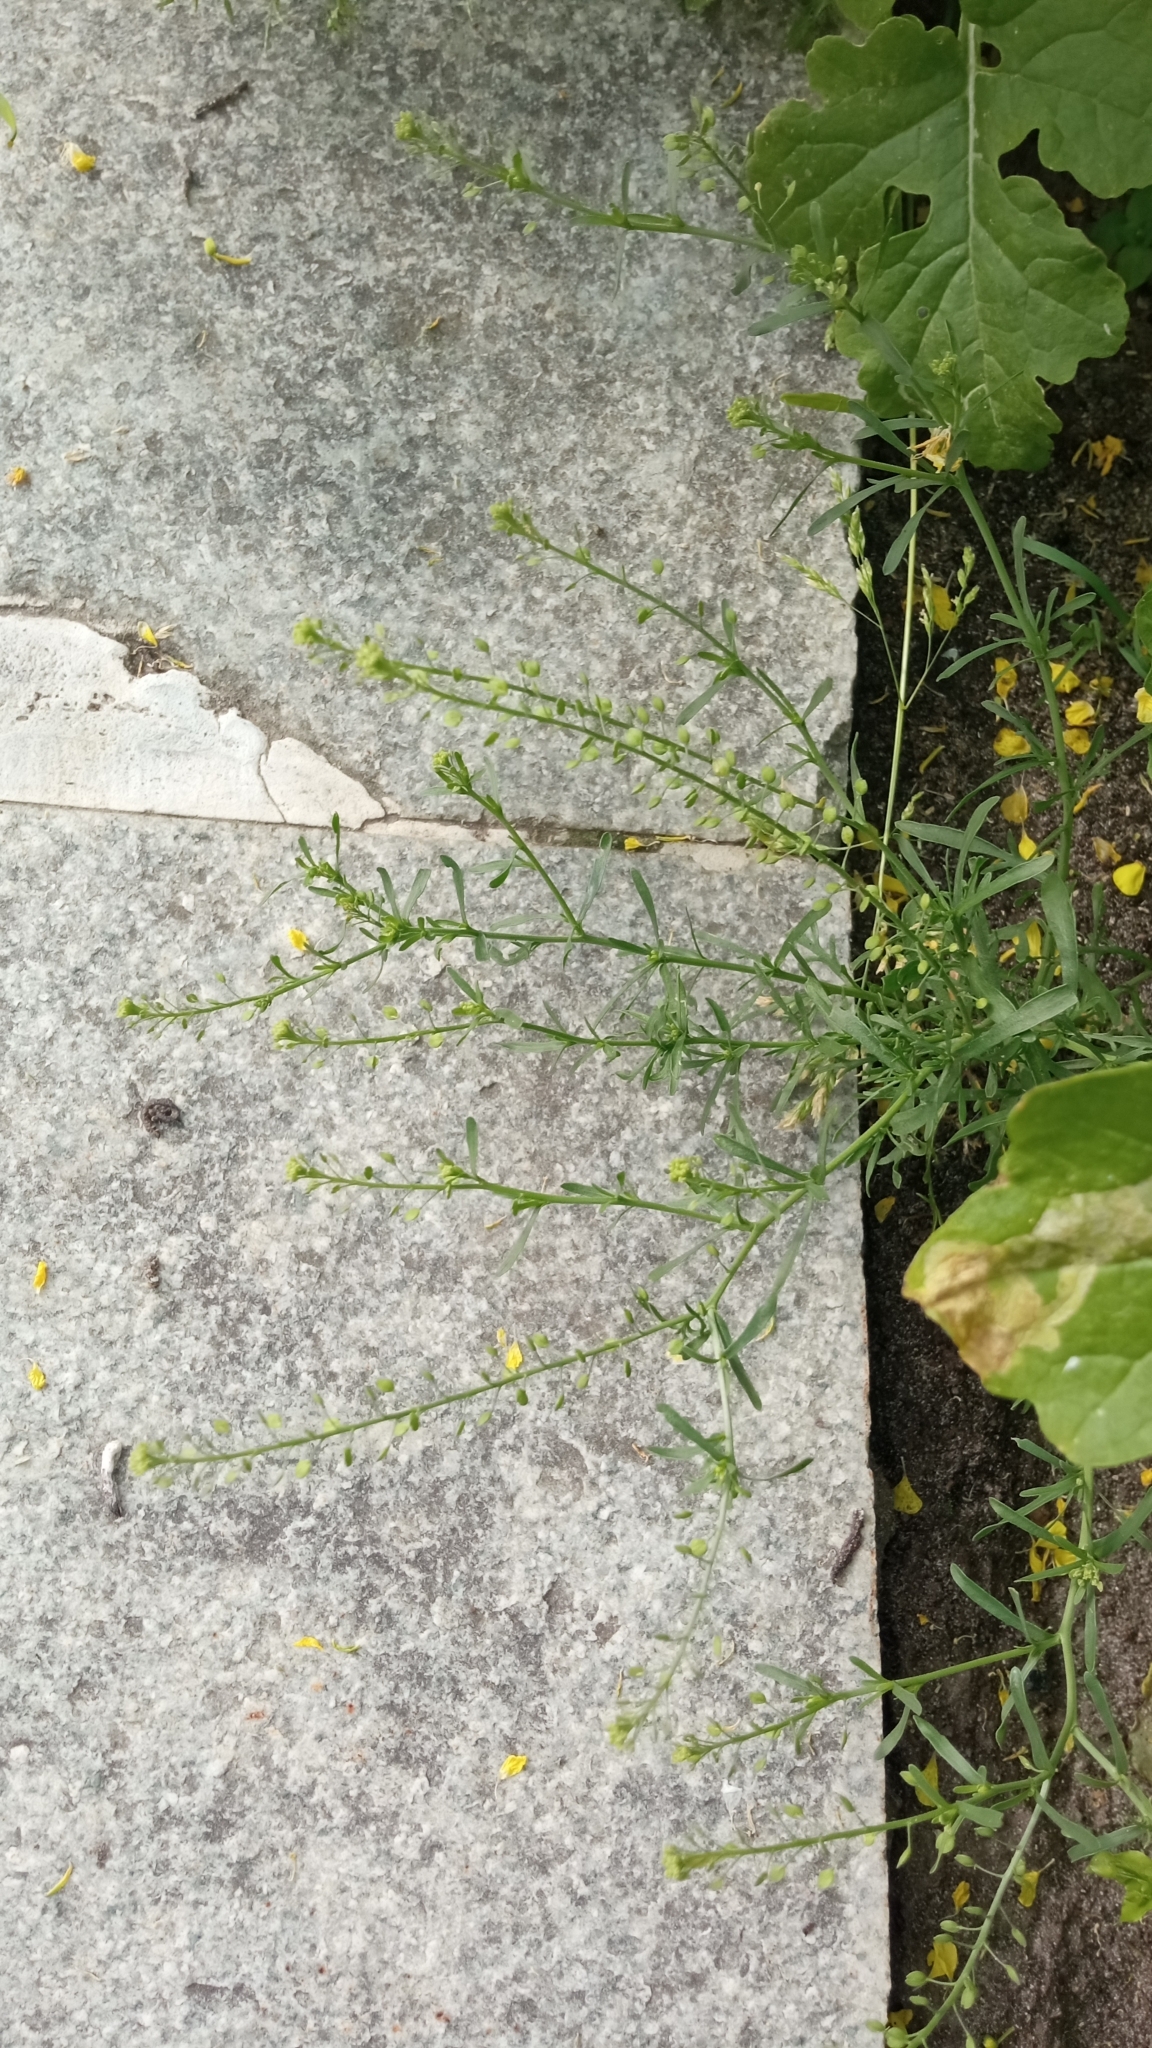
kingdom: Plantae
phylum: Tracheophyta
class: Magnoliopsida
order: Brassicales
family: Brassicaceae
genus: Lepidium
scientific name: Lepidium ruderale
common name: Narrow-leaved pepperwort
